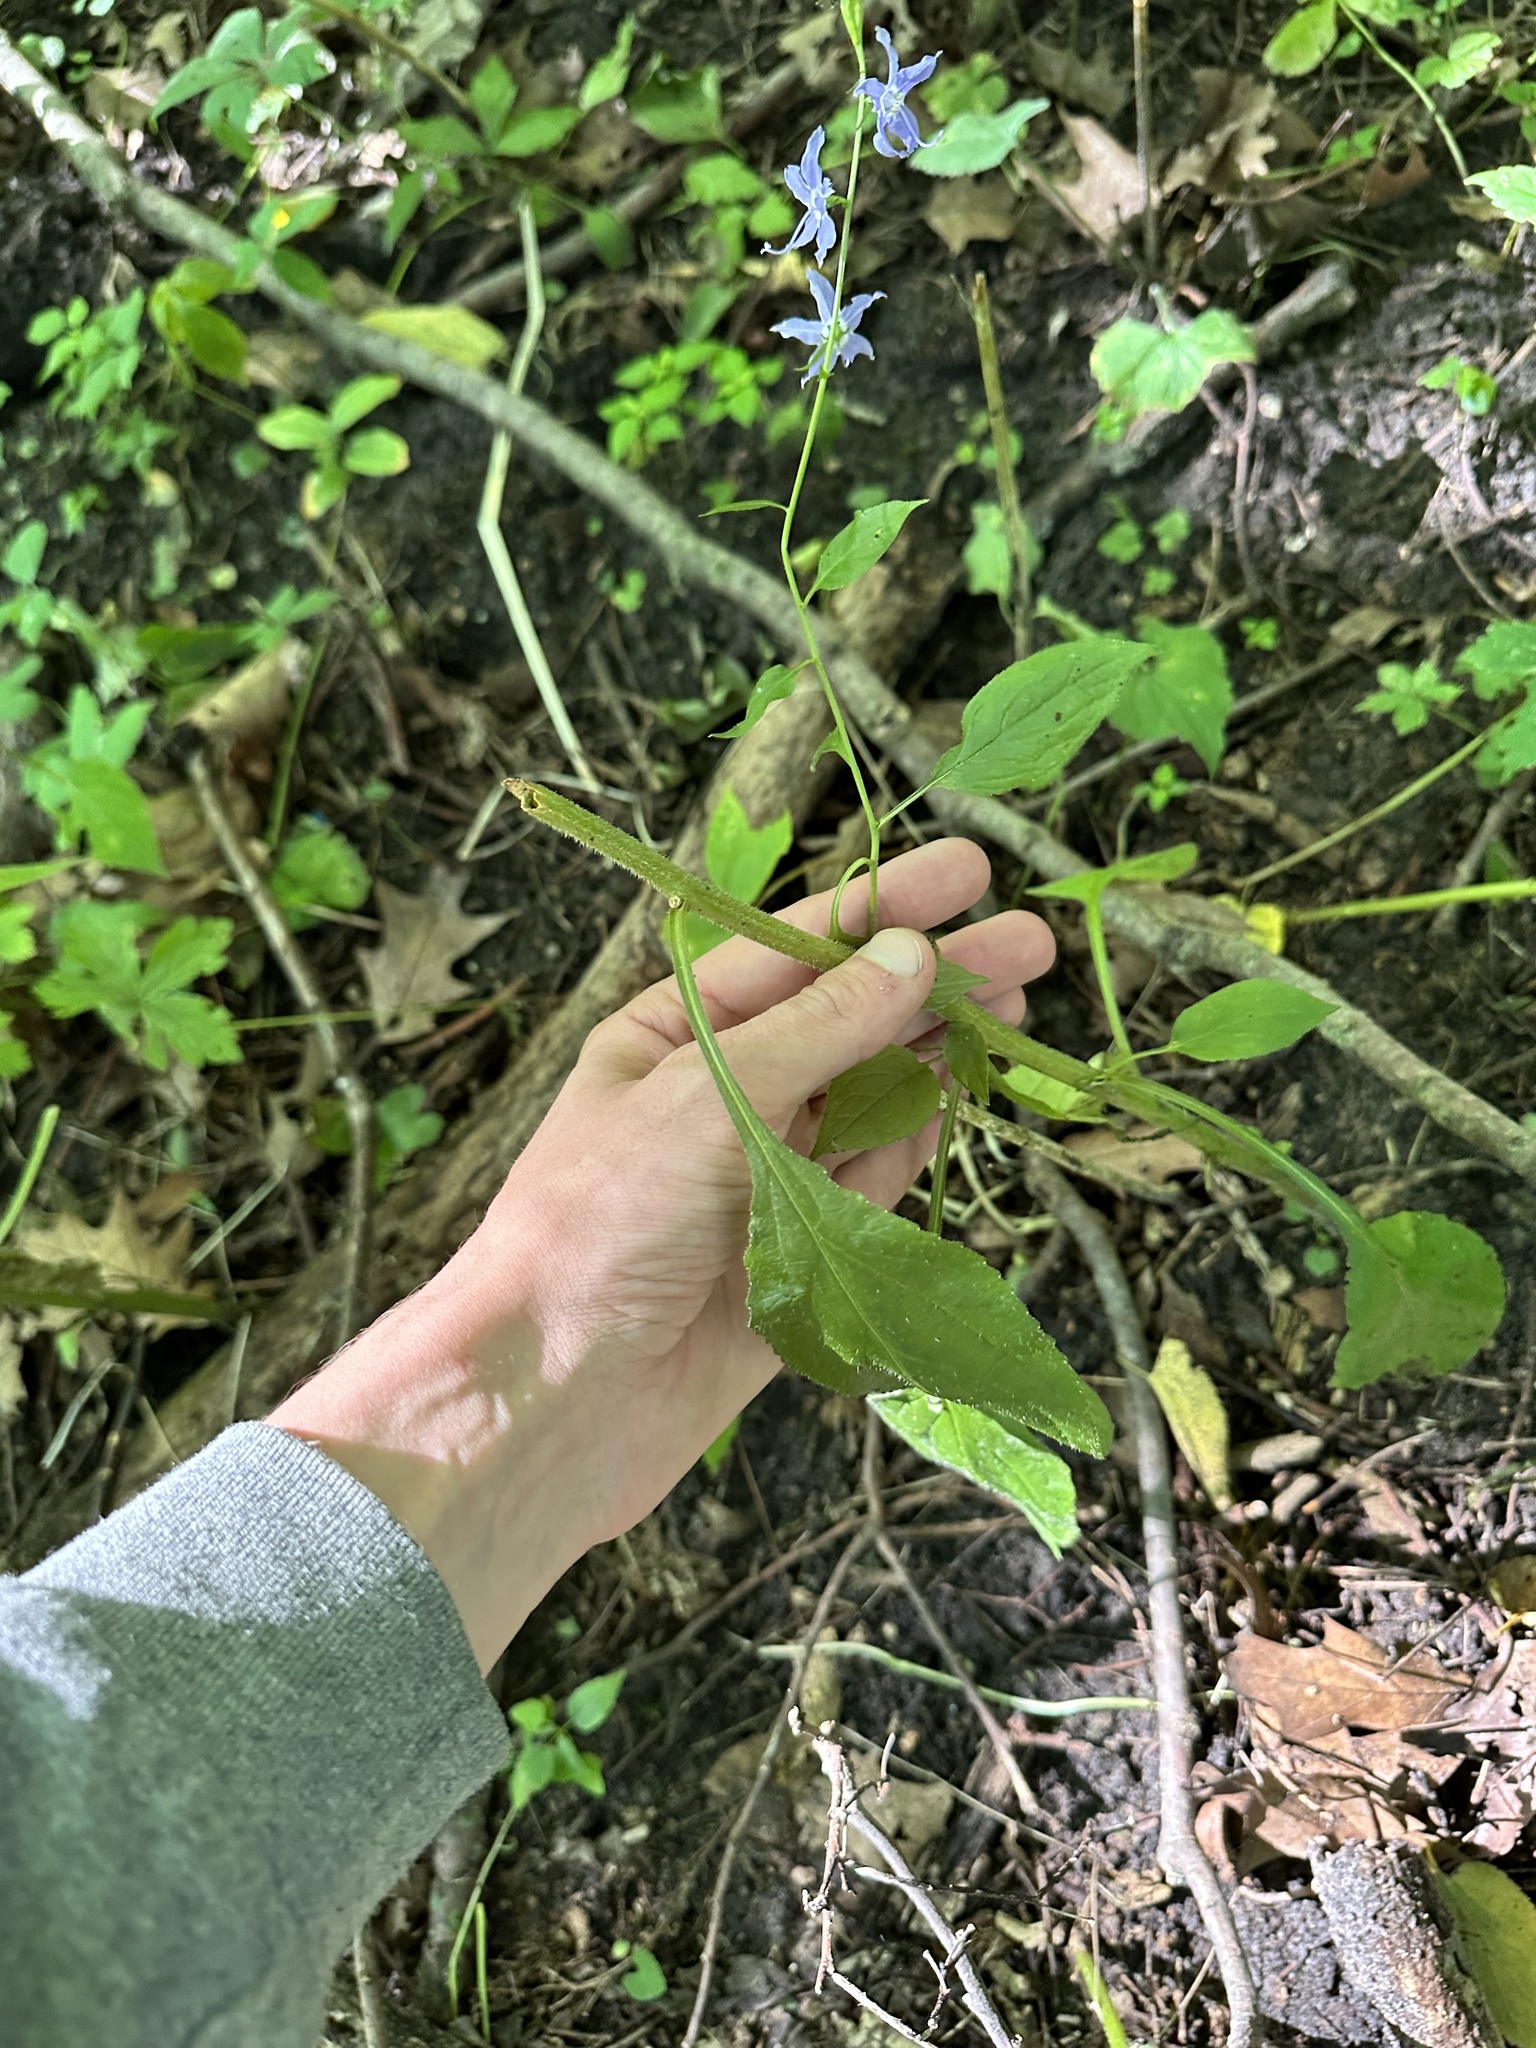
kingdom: Plantae
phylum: Tracheophyta
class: Magnoliopsida
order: Asterales
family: Campanulaceae
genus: Campanulastrum
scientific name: Campanulastrum americanum
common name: American bellflower
